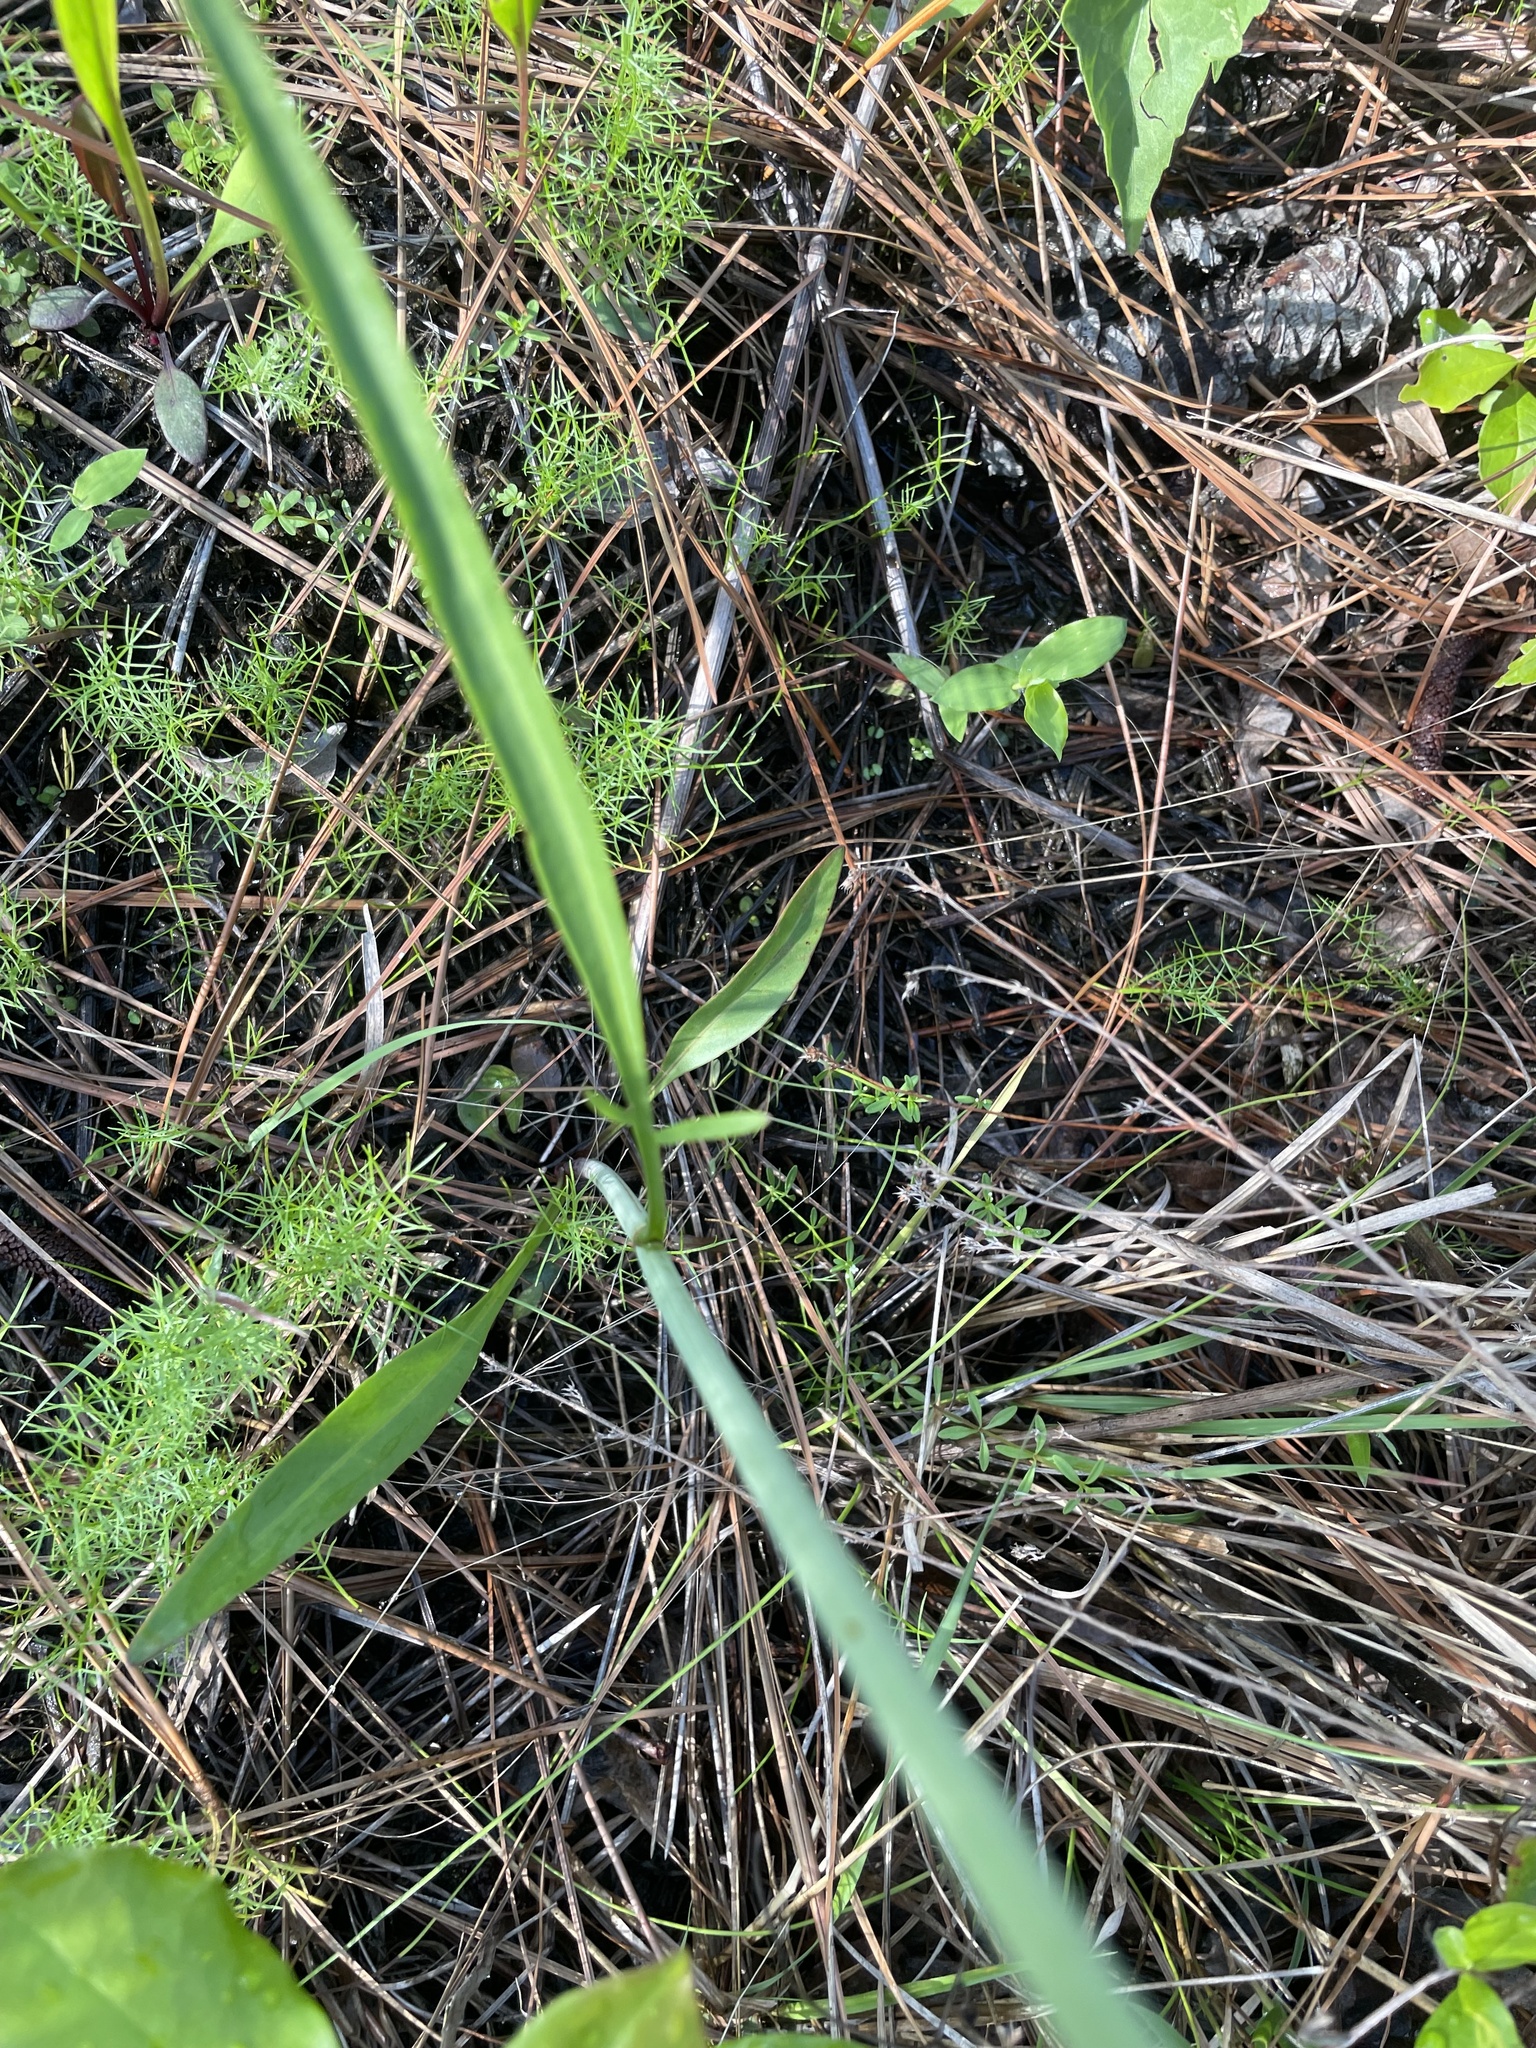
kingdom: Plantae
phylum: Tracheophyta
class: Magnoliopsida
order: Asterales
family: Asteraceae
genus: Coreopsis
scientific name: Coreopsis gladiata
